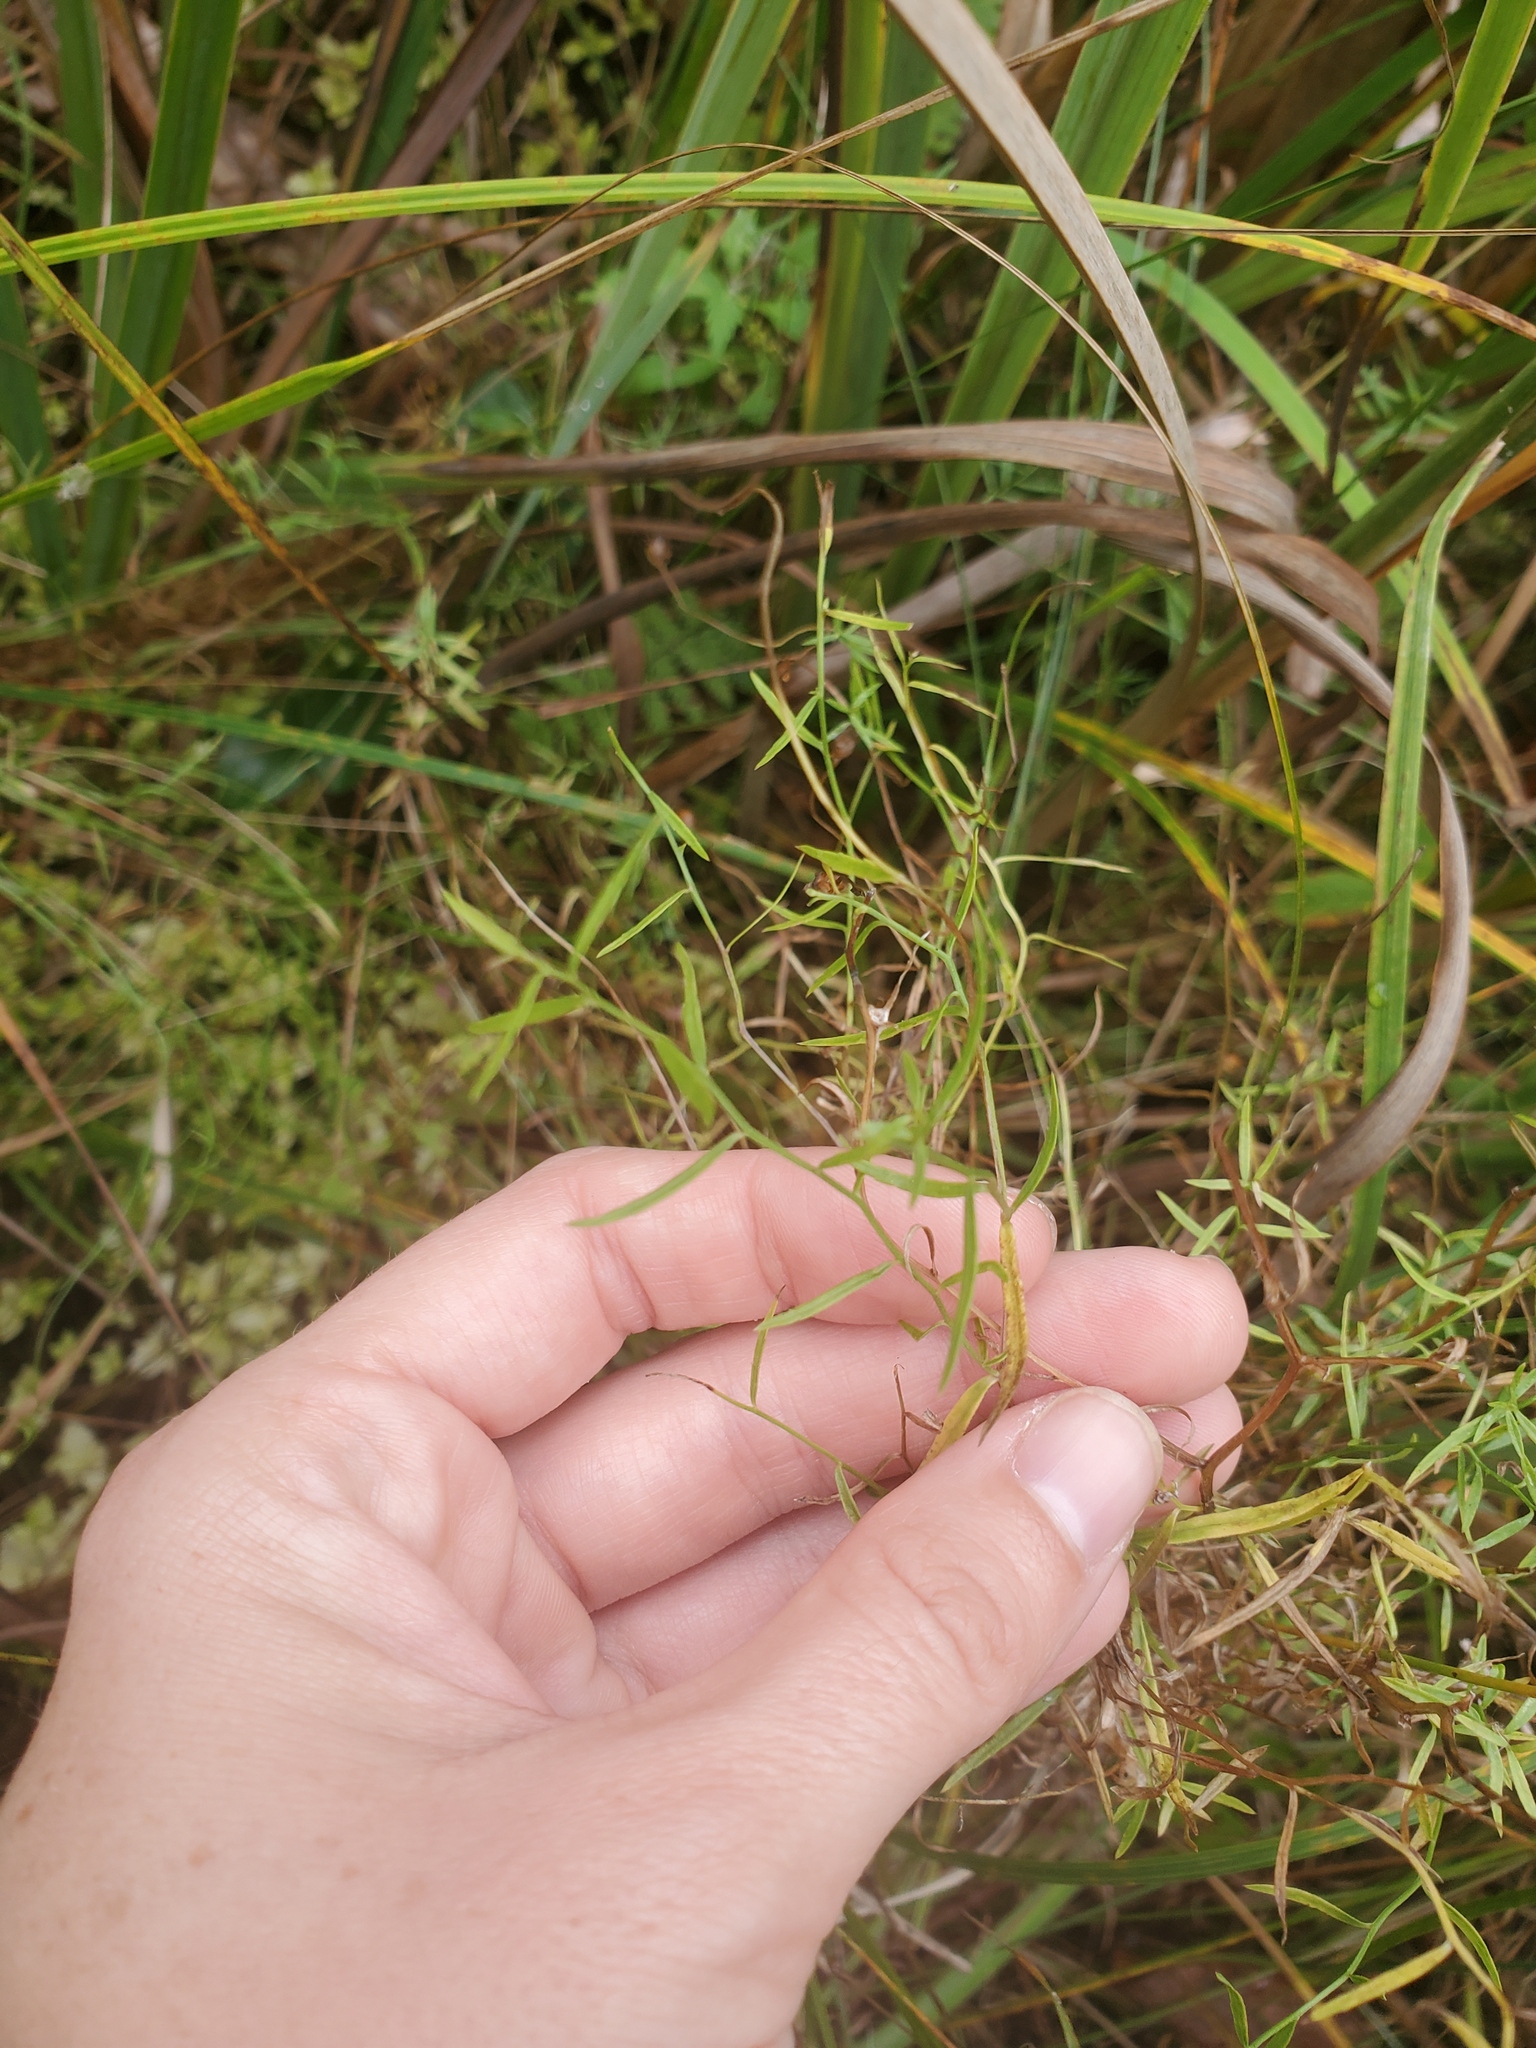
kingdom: Plantae
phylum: Tracheophyta
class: Magnoliopsida
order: Asterales
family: Campanulaceae
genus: Palustricodon
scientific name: Palustricodon aparinoides
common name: Bedstraw bellflower
